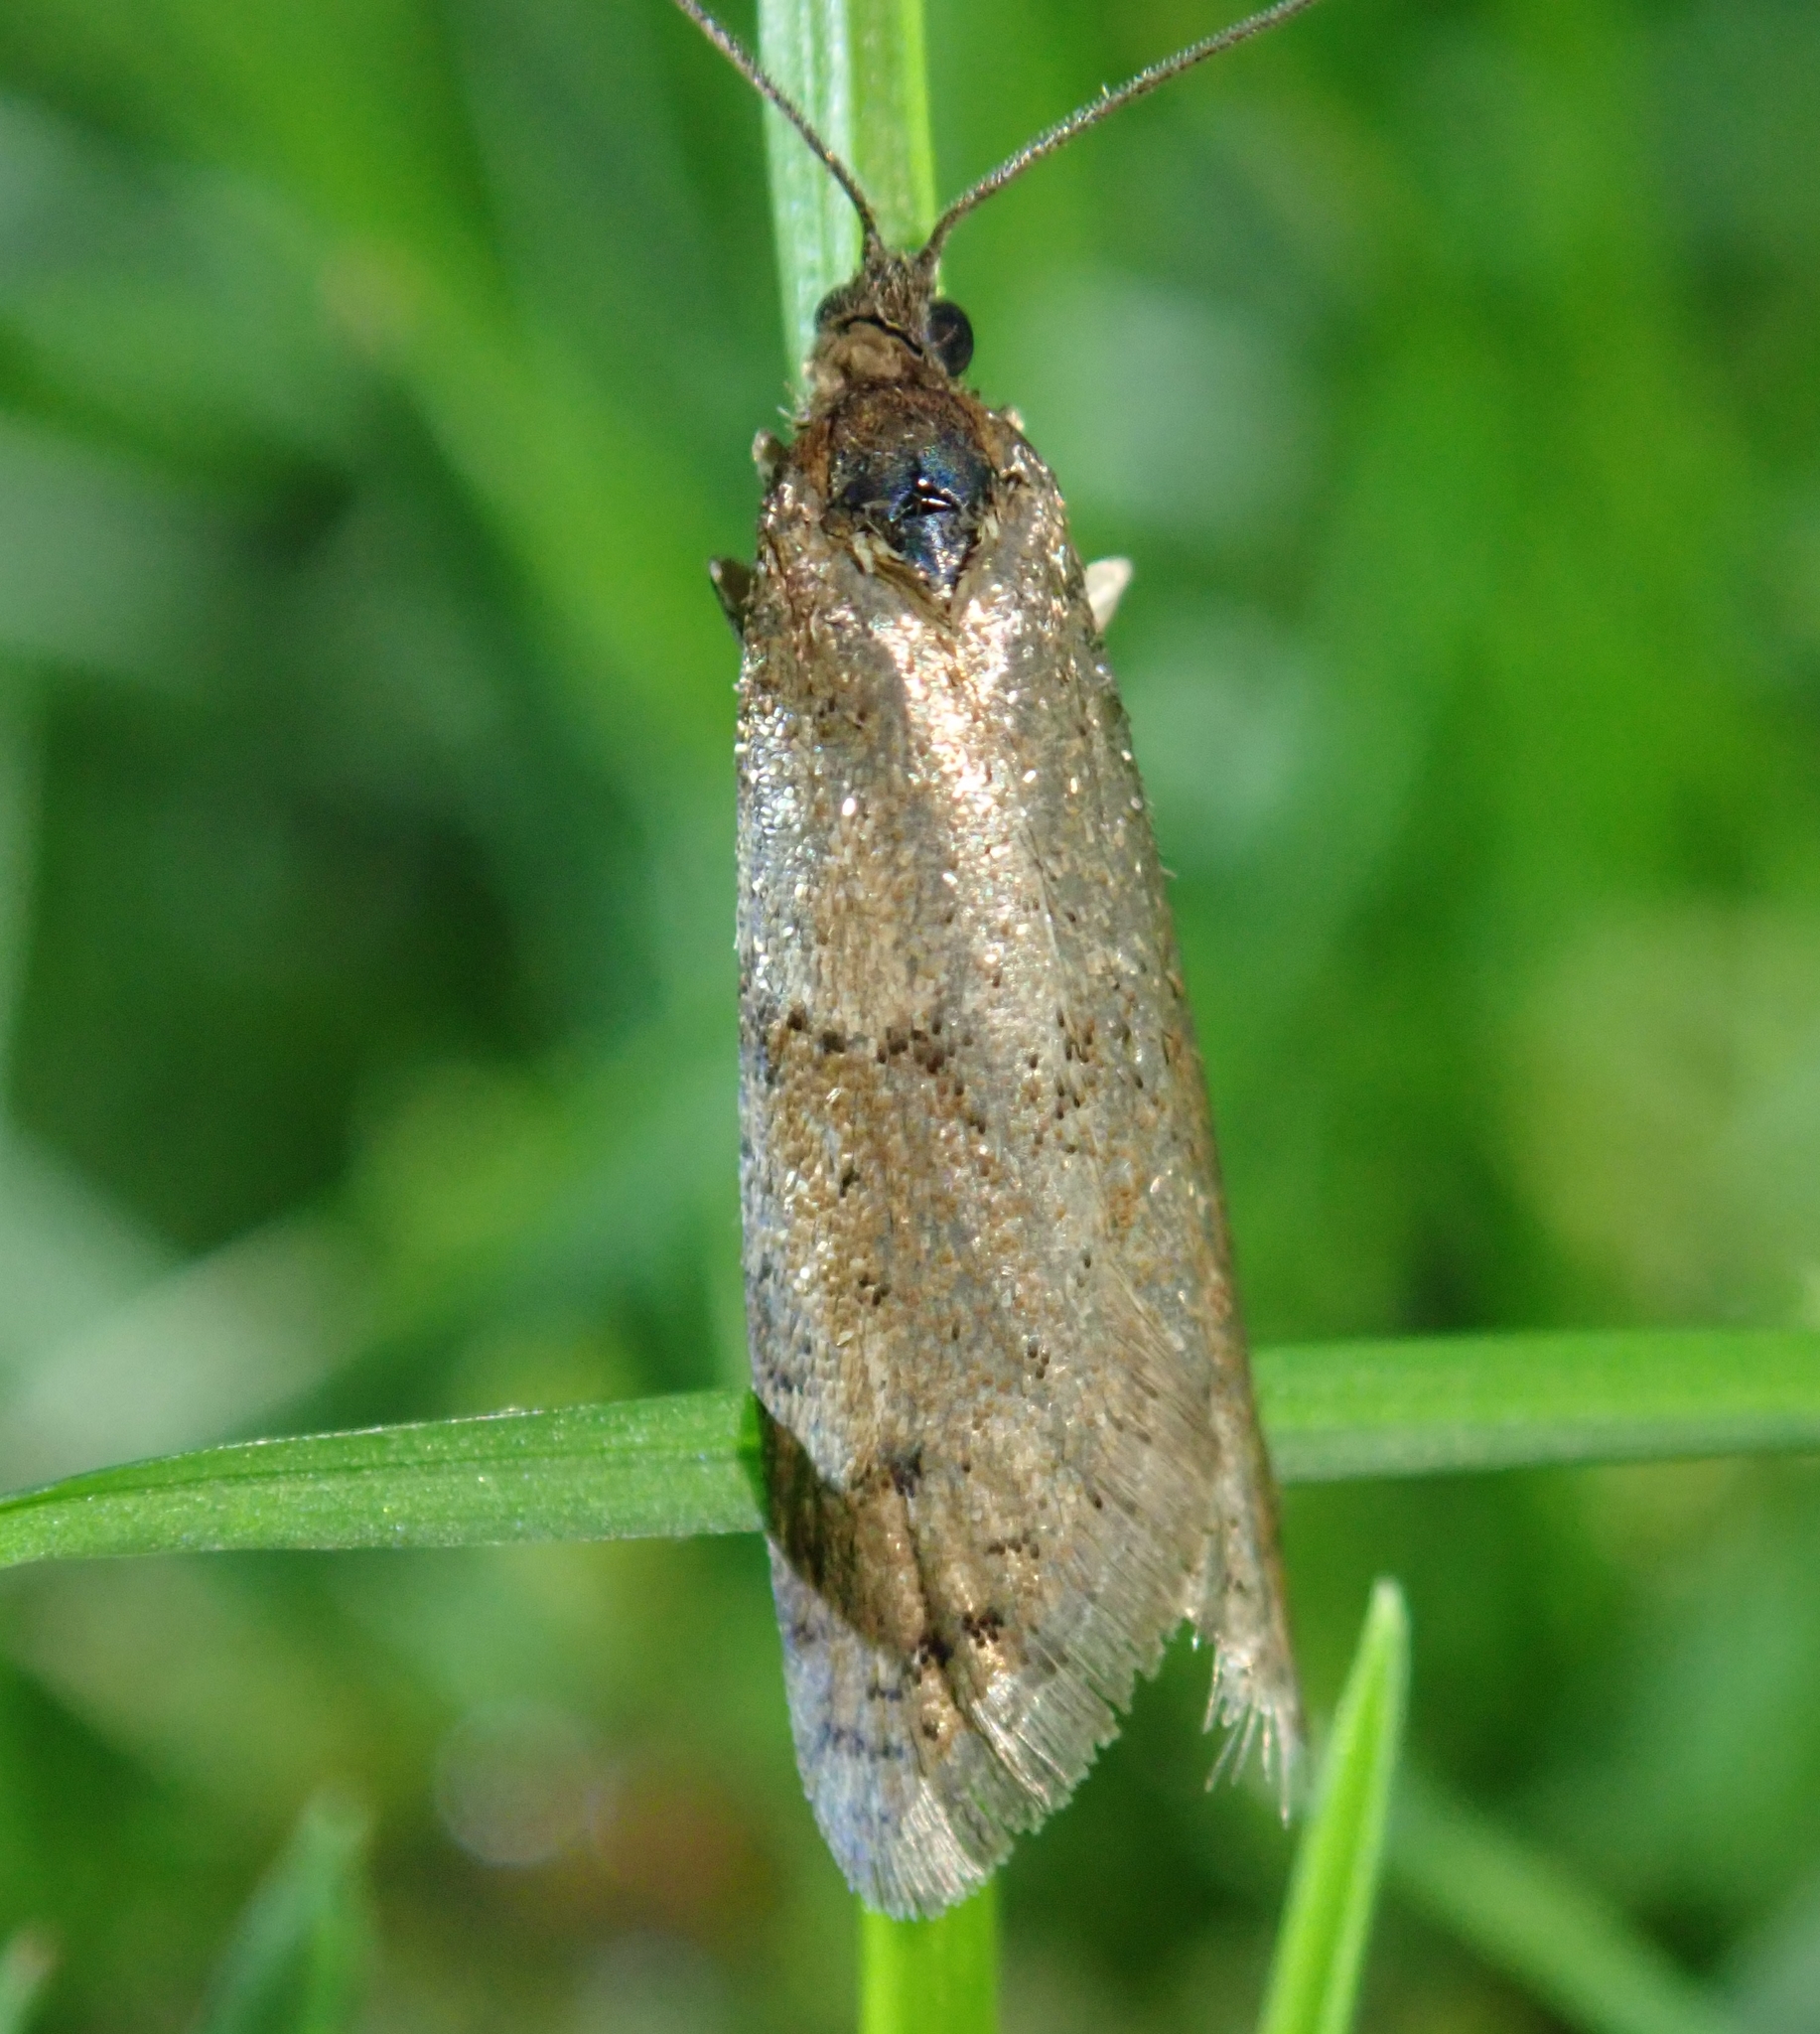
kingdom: Animalia
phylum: Arthropoda
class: Insecta
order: Lepidoptera
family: Tortricidae
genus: Tortricodes
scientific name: Tortricodes alternella
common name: Winter shade
